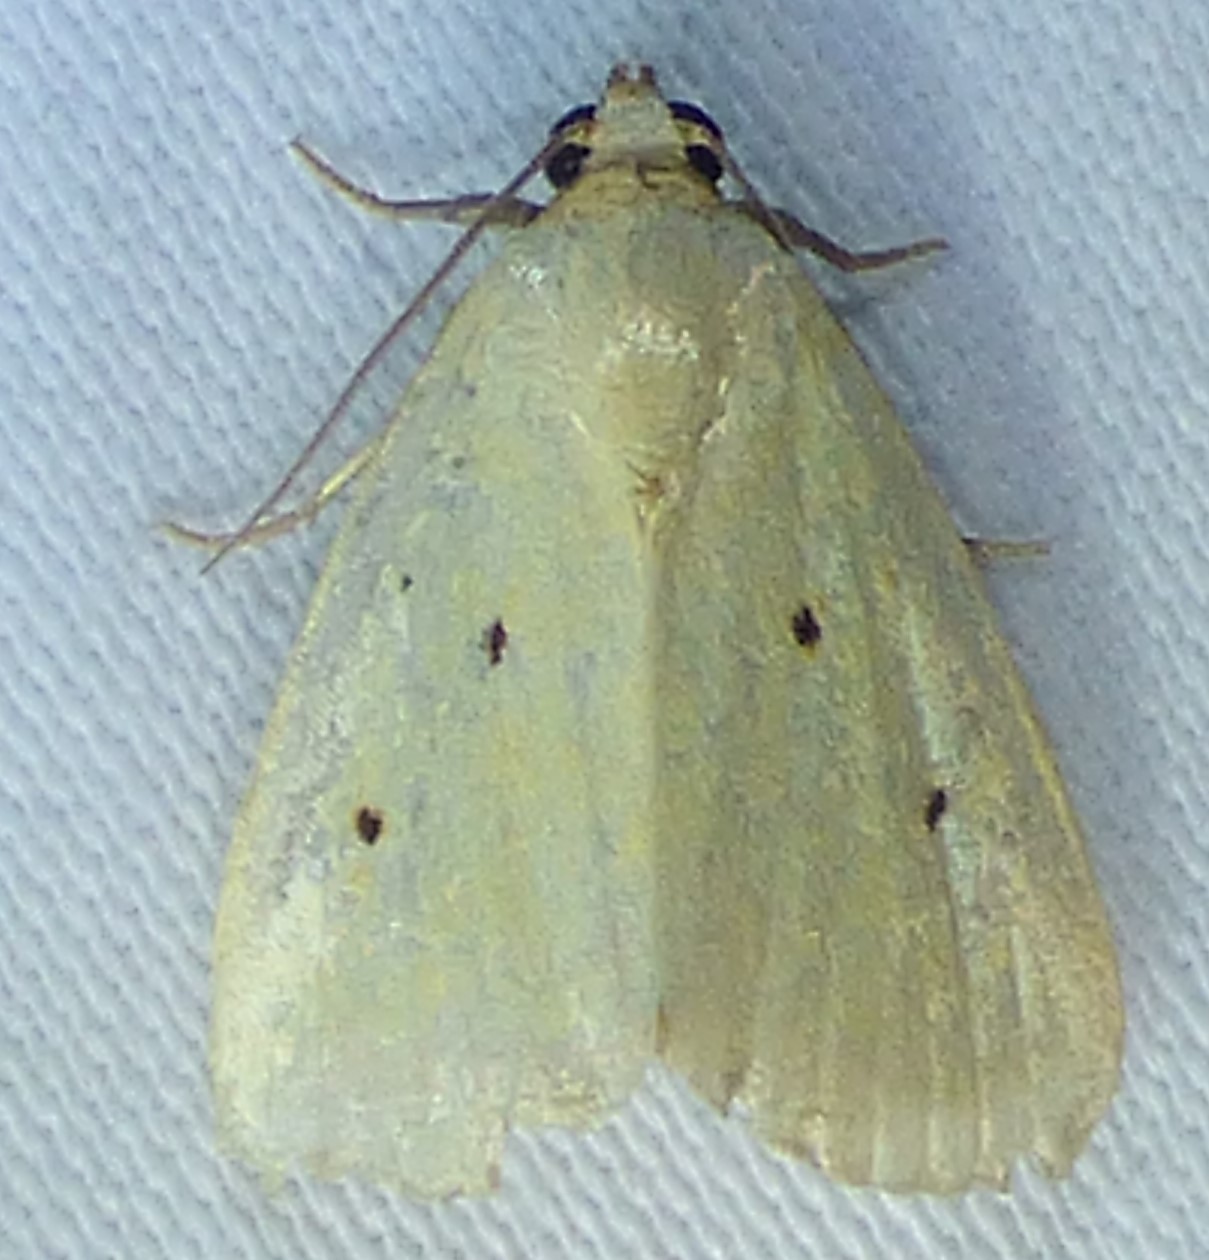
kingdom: Animalia
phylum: Arthropoda
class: Insecta
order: Lepidoptera
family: Noctuidae
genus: Marimatha
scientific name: Marimatha nigrofimbria
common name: Black-bordered lemon moth
